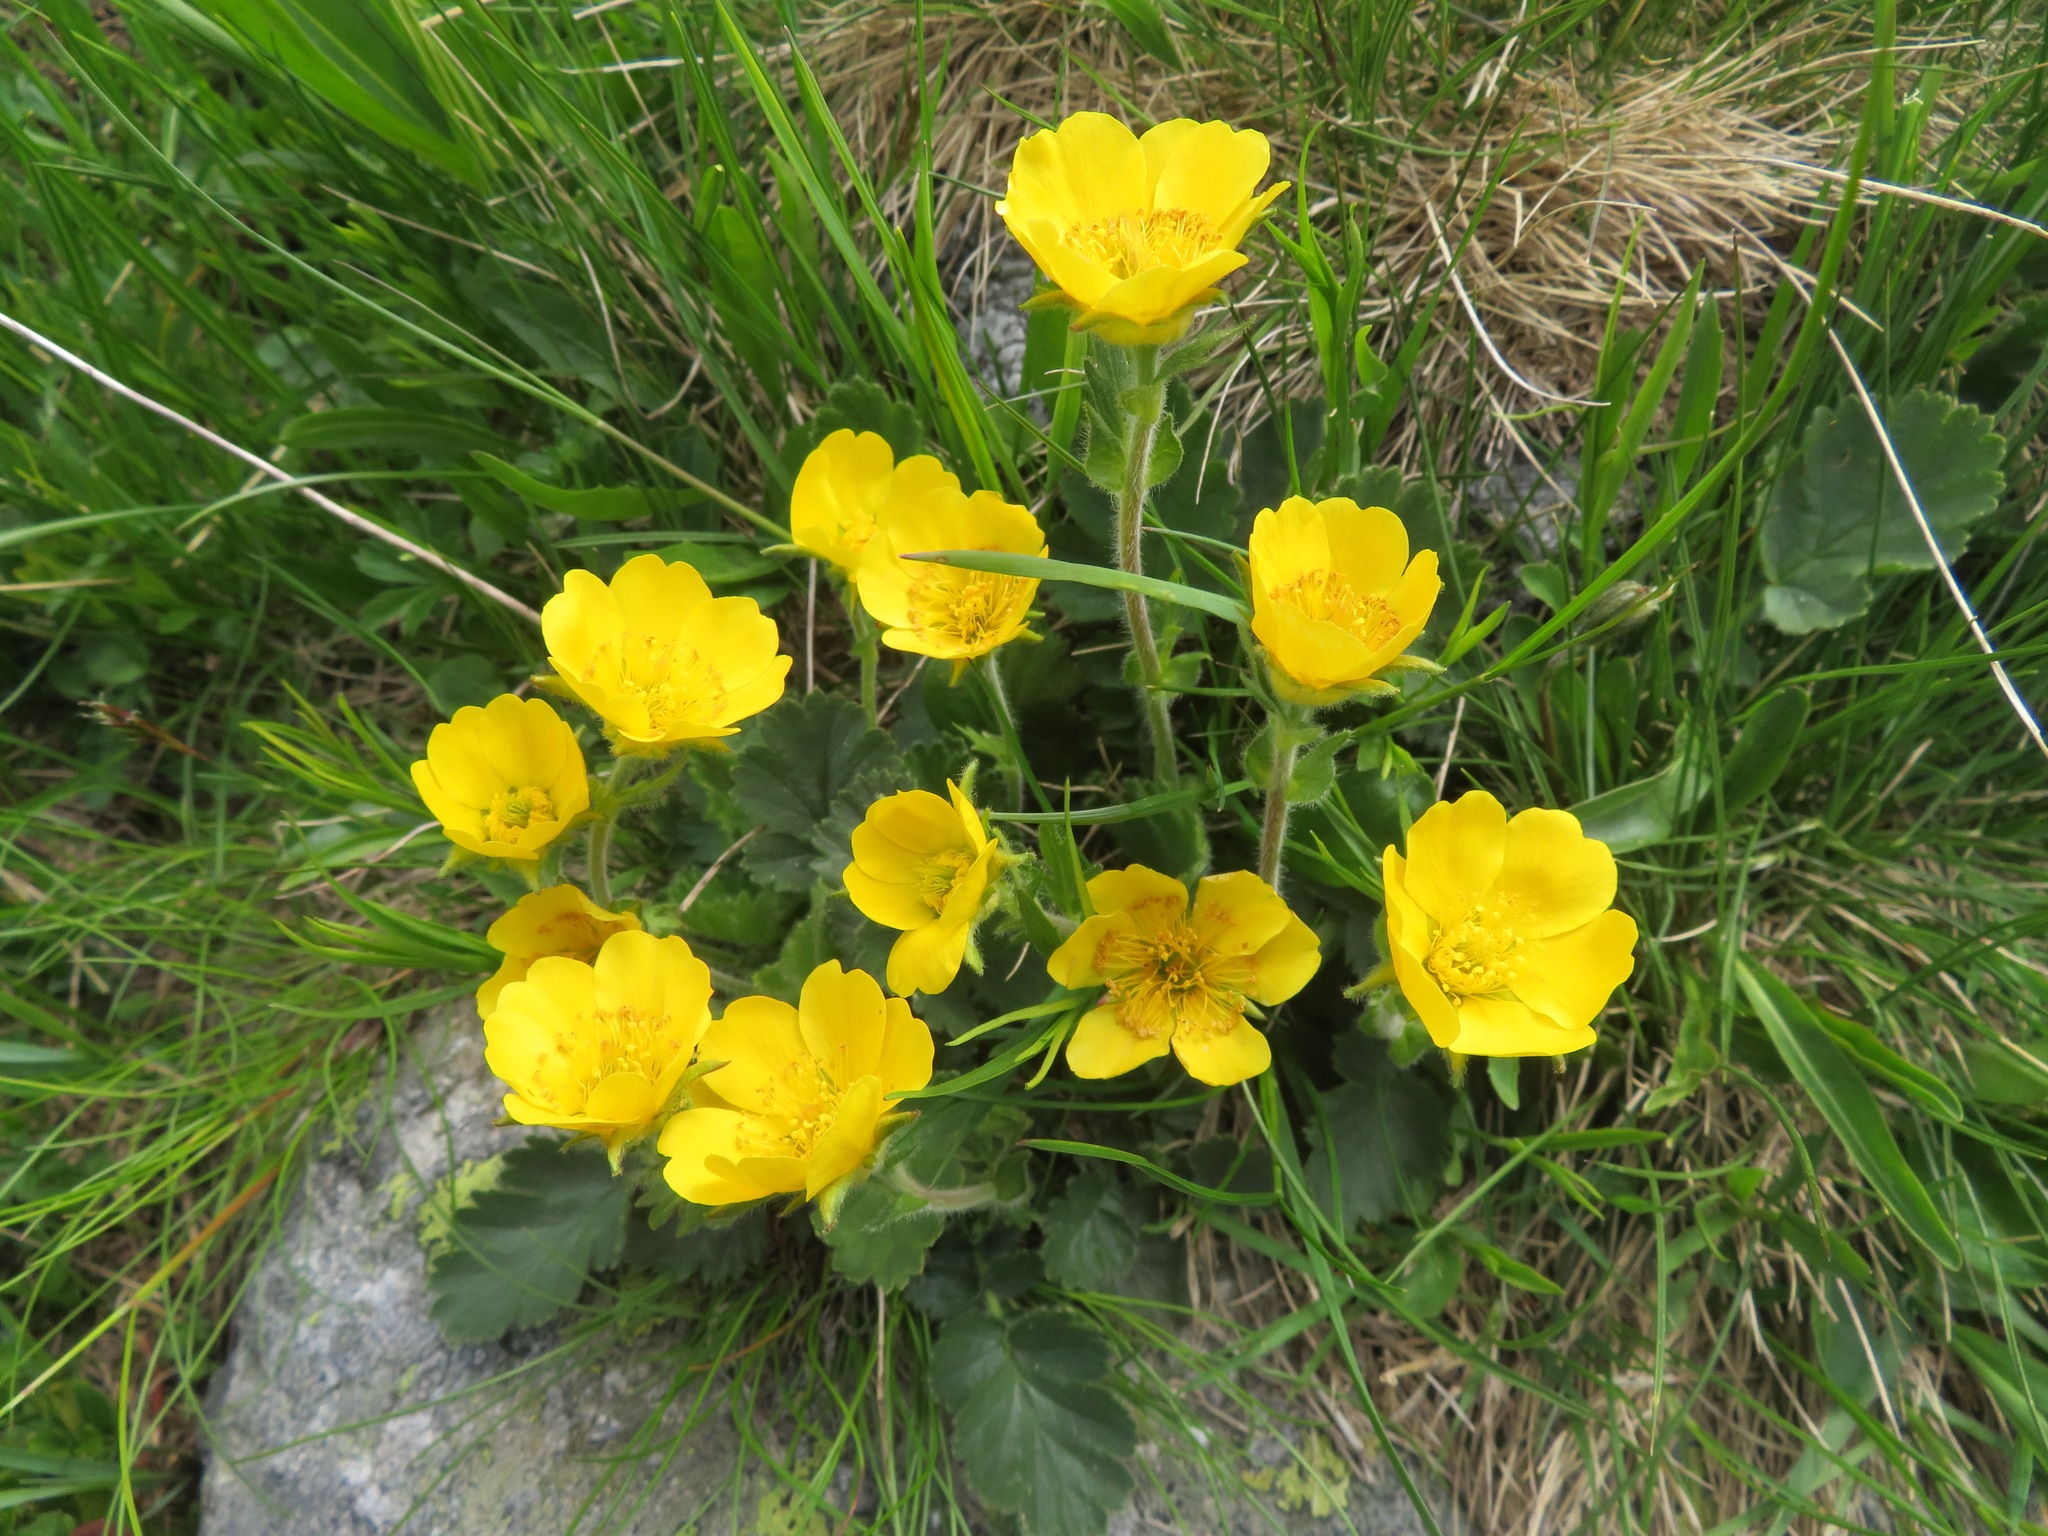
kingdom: Plantae
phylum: Tracheophyta
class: Magnoliopsida
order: Rosales
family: Rosaceae
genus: Geum
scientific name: Geum montanum
